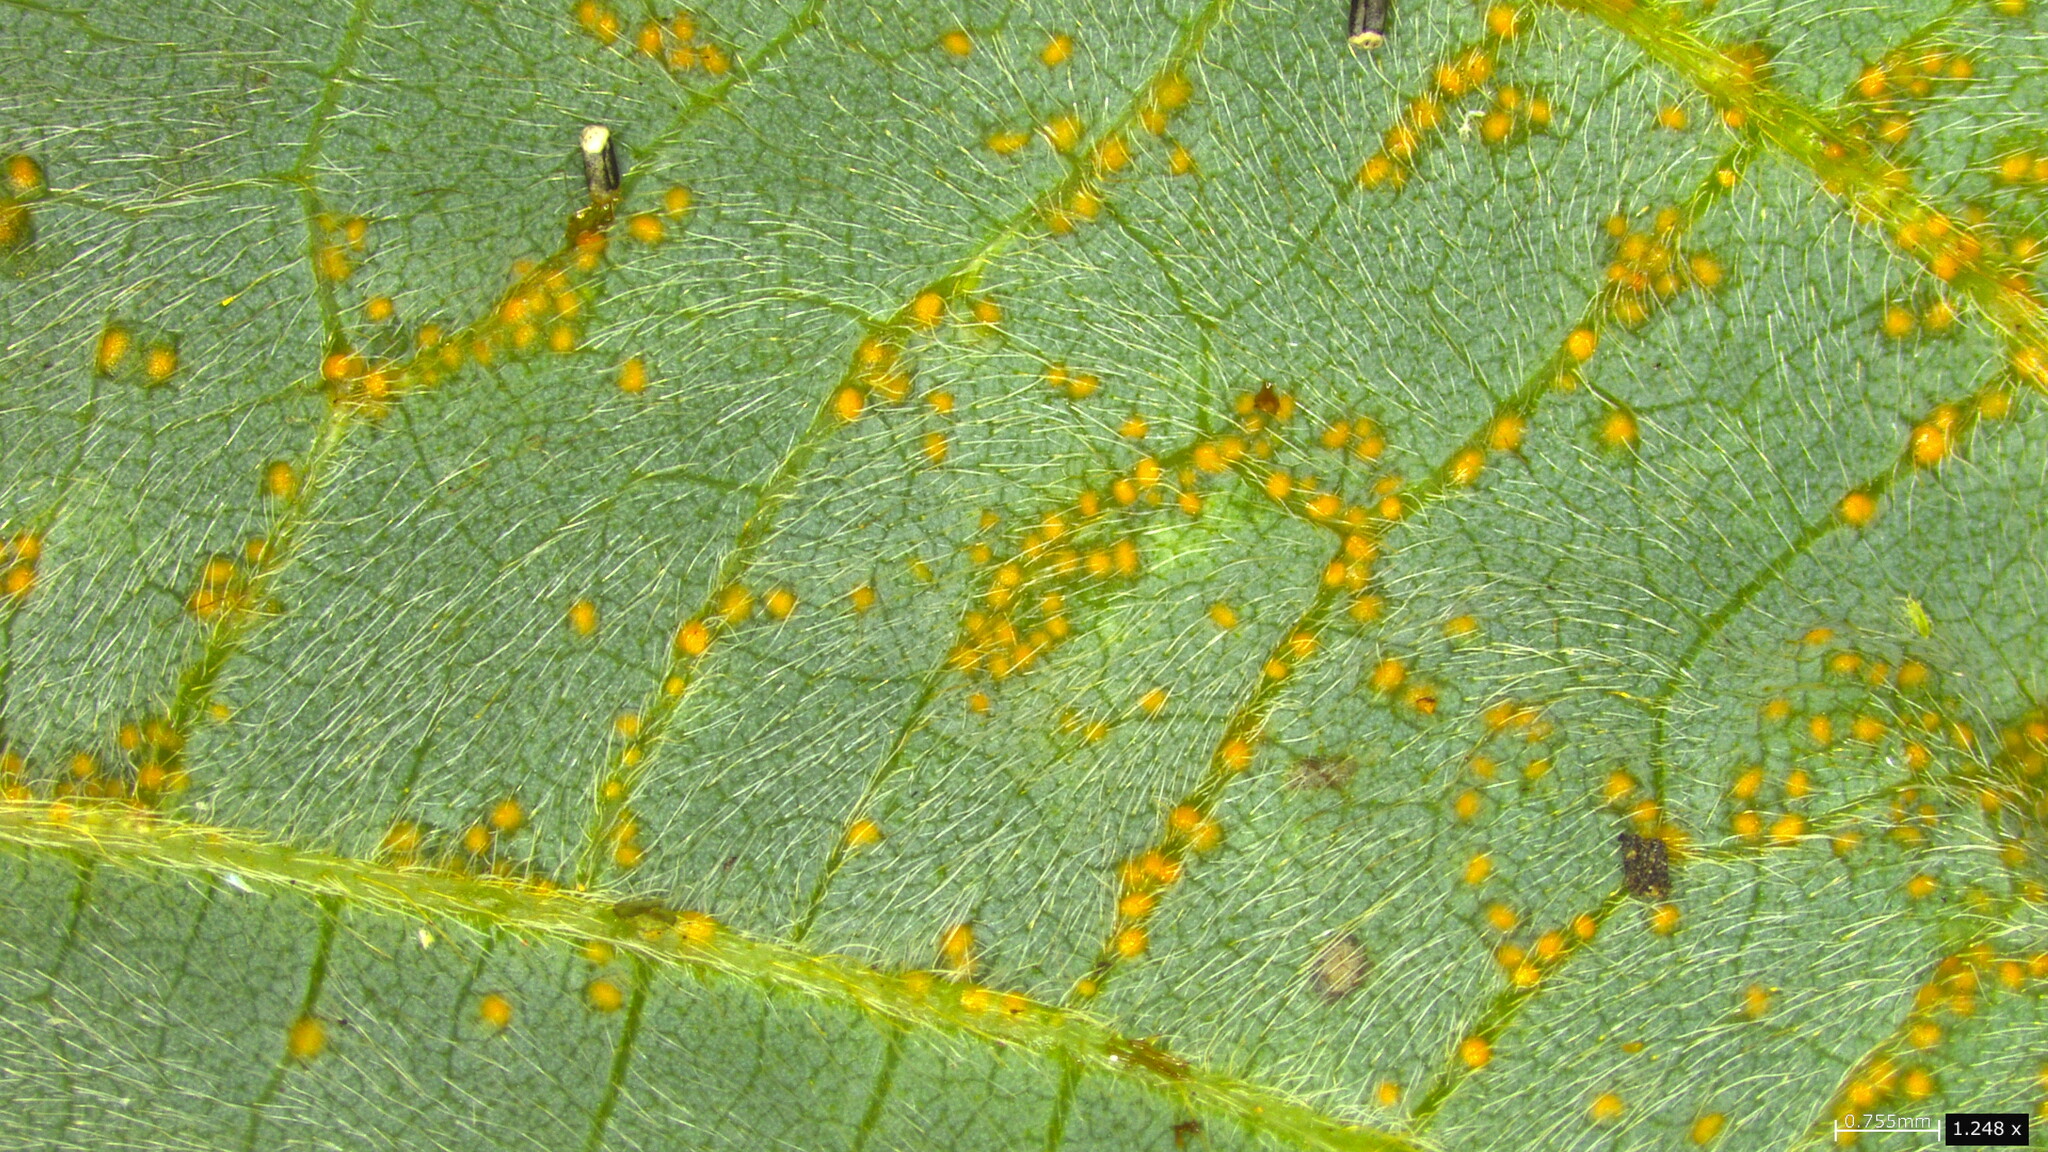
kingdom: Fungi
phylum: Chytridiomycota
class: Chytridiomycetes
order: Chytridiales
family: Synchytriaceae
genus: Synchytrium
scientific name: Synchytrium minutum
